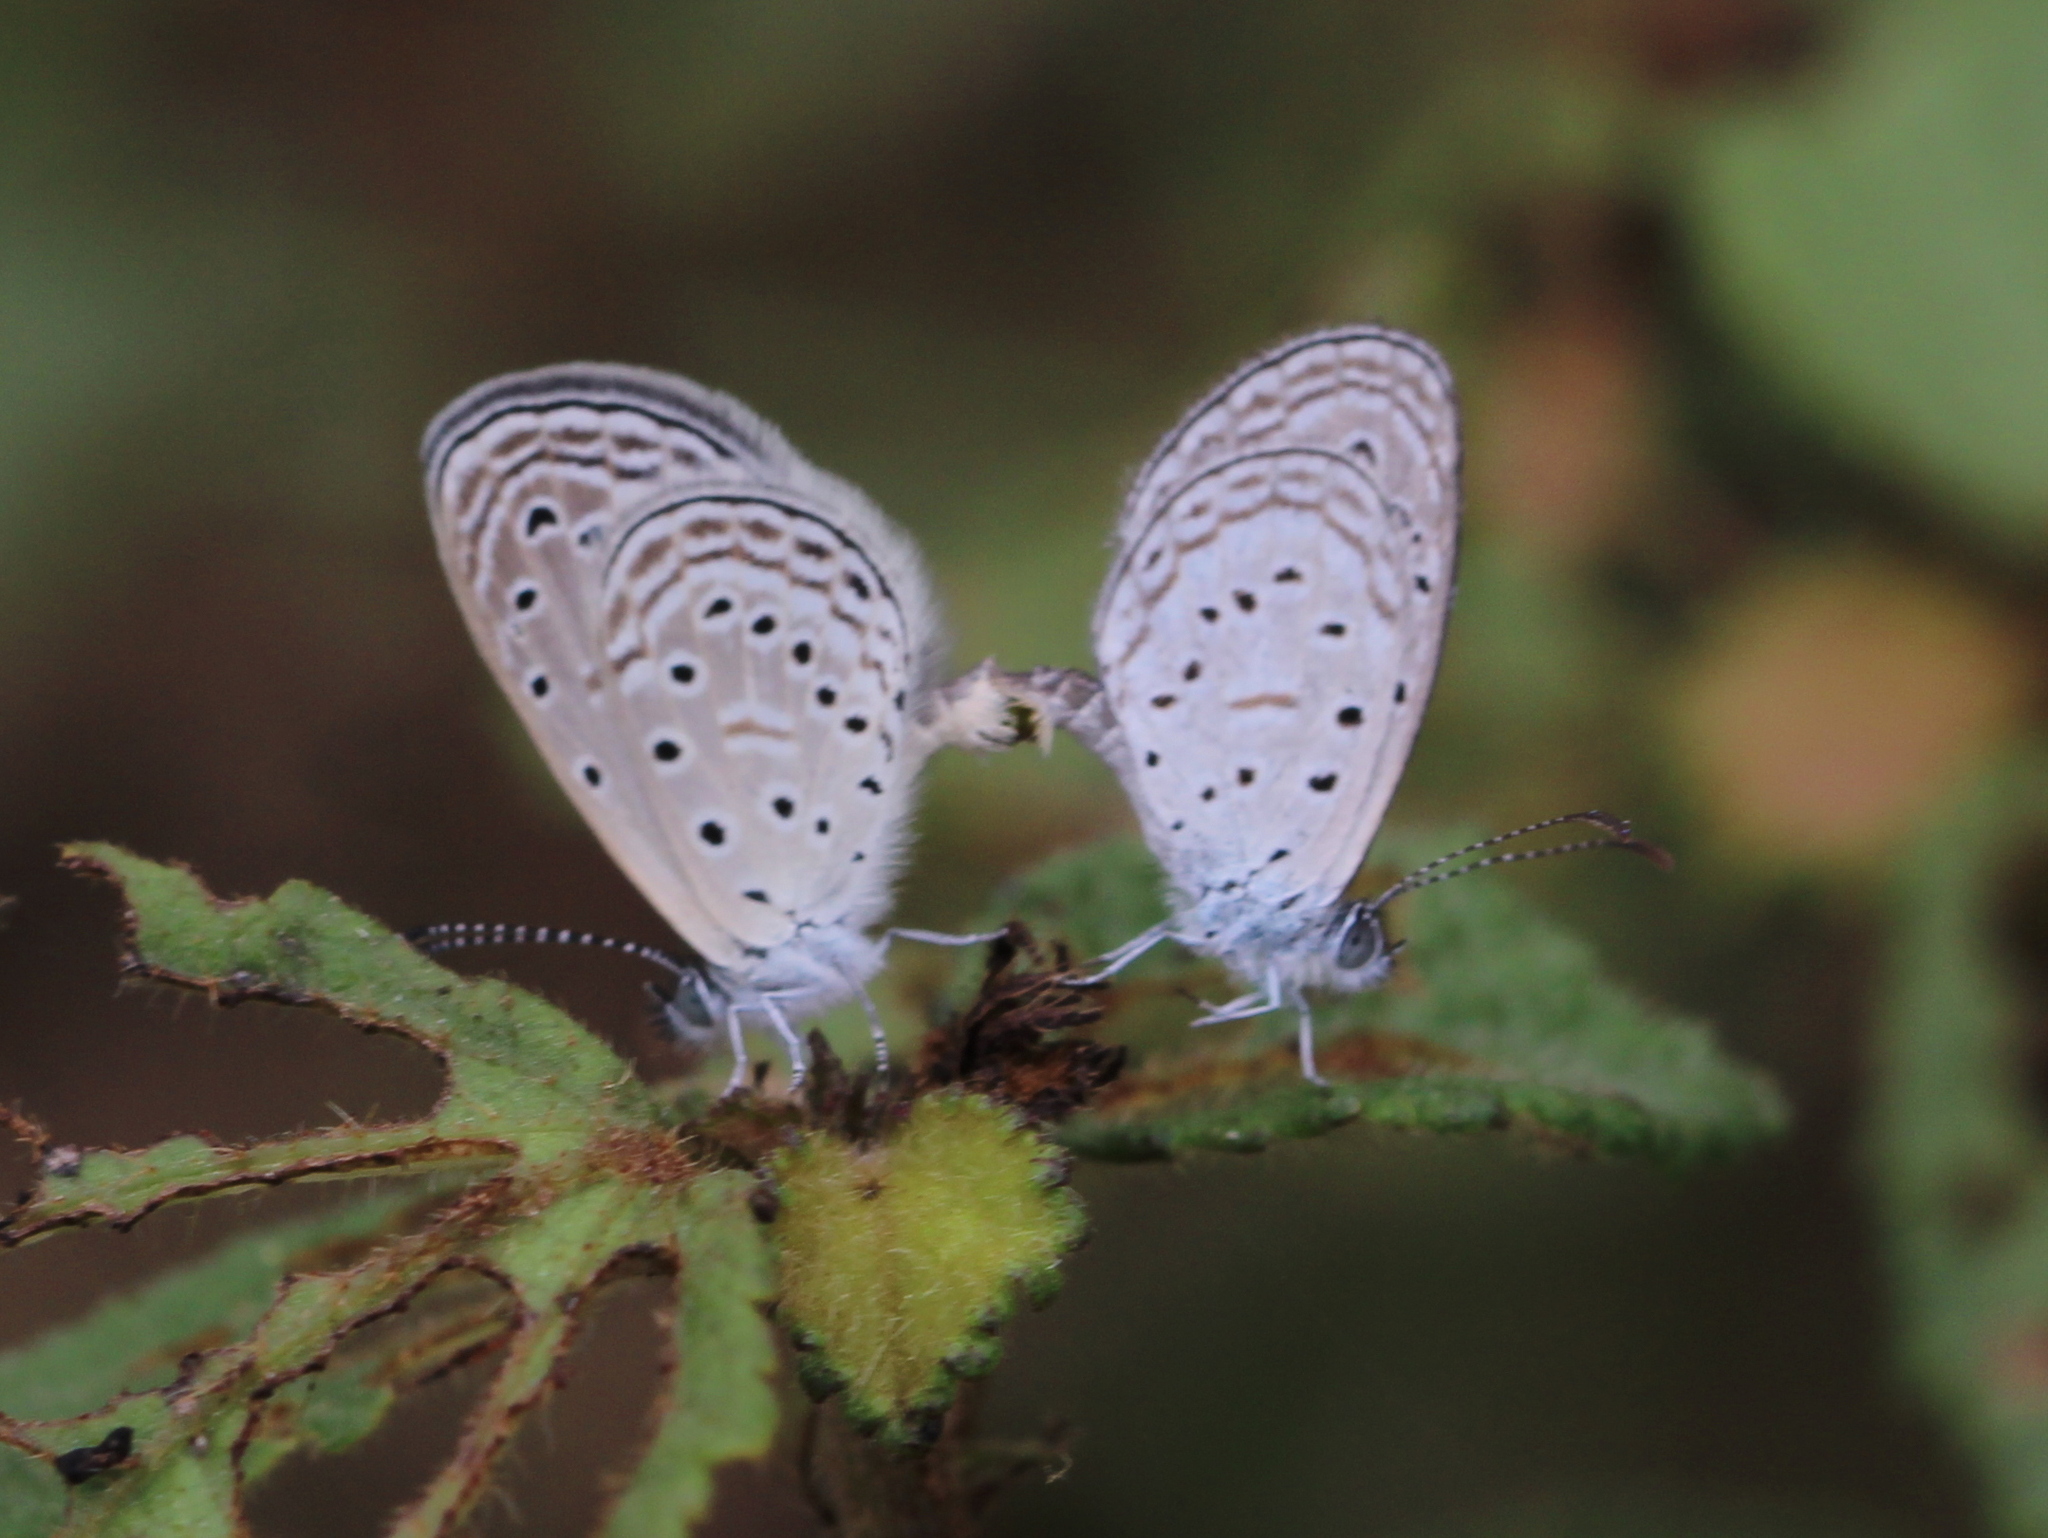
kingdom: Animalia
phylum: Arthropoda
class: Insecta
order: Lepidoptera
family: Lycaenidae
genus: Zizula
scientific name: Zizula hylax
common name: Gaika blue
